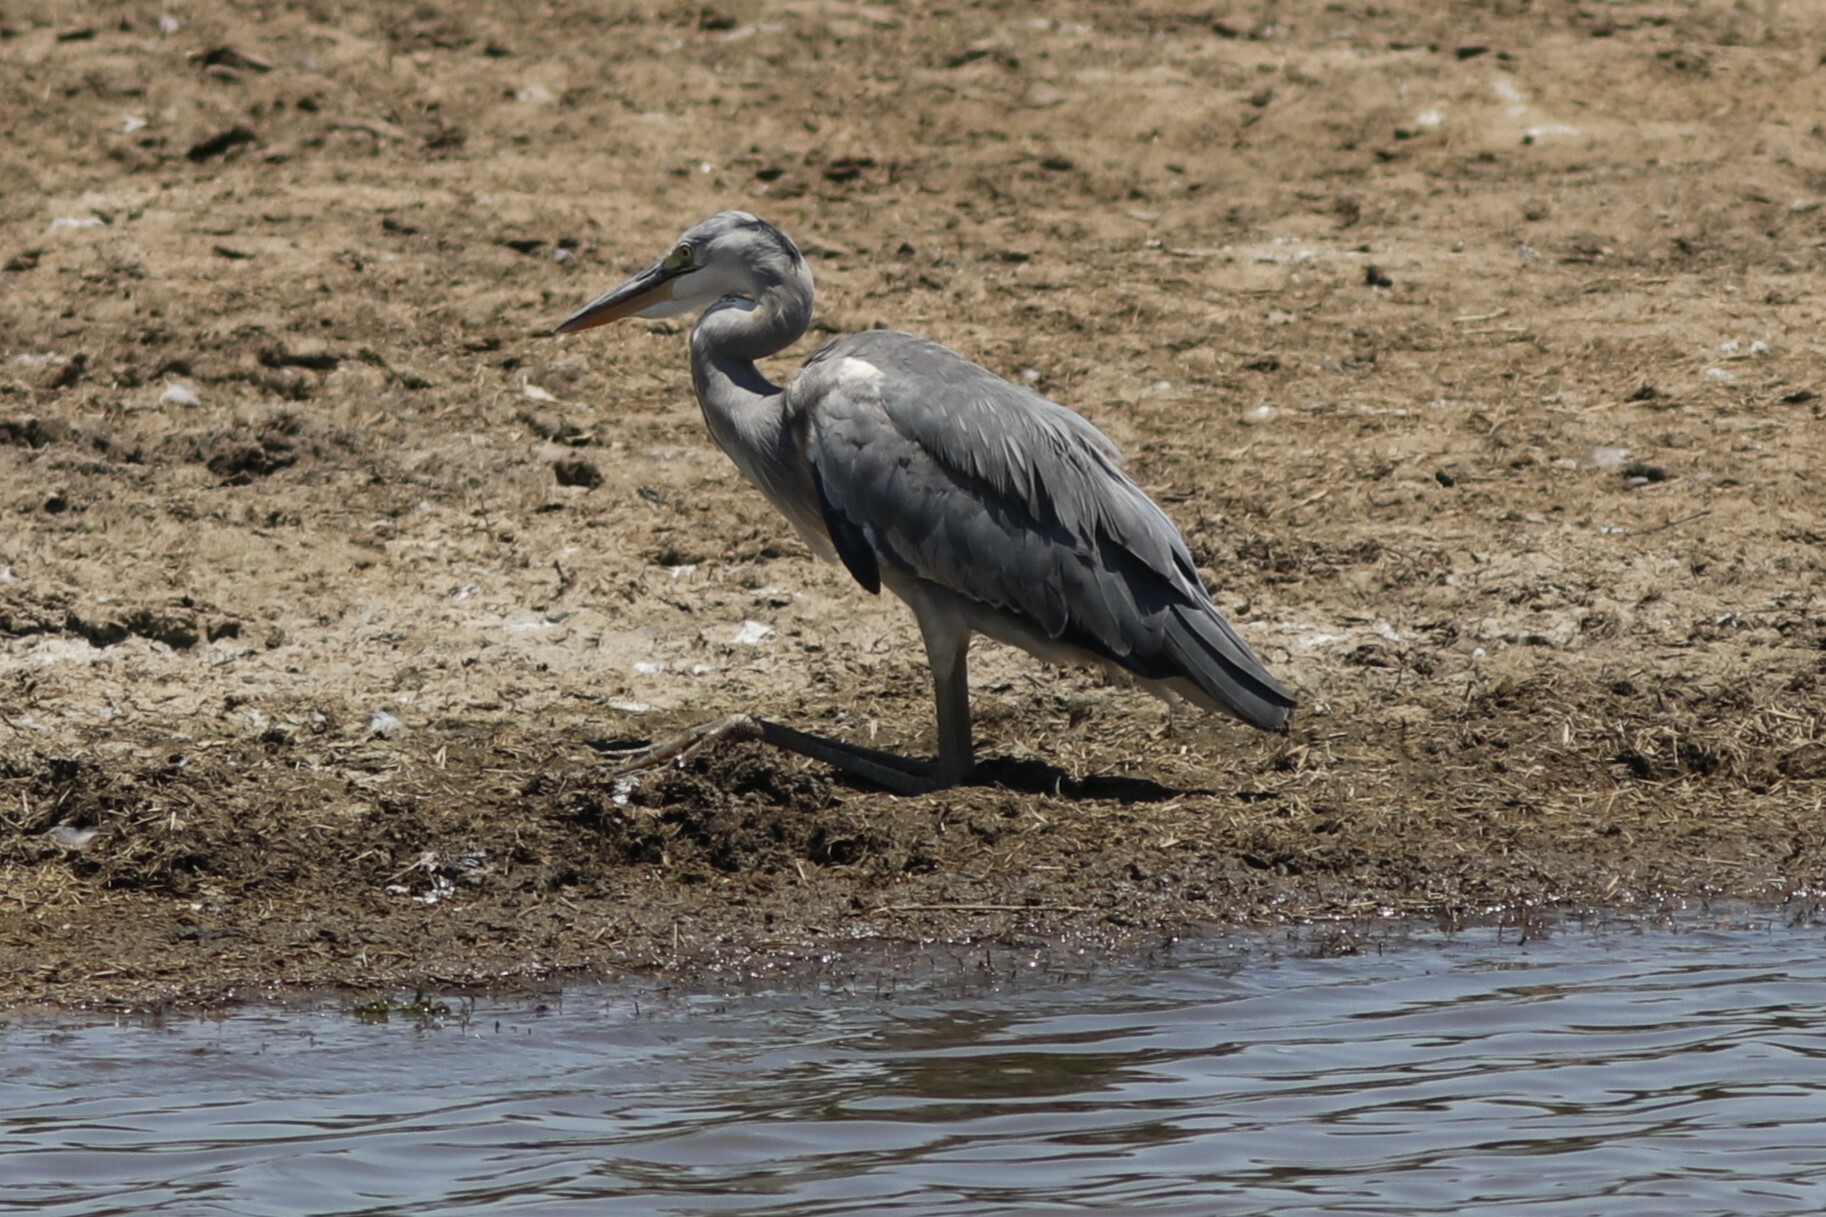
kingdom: Animalia
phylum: Chordata
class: Aves
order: Pelecaniformes
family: Ardeidae
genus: Ardea
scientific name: Ardea cinerea
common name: Grey heron
